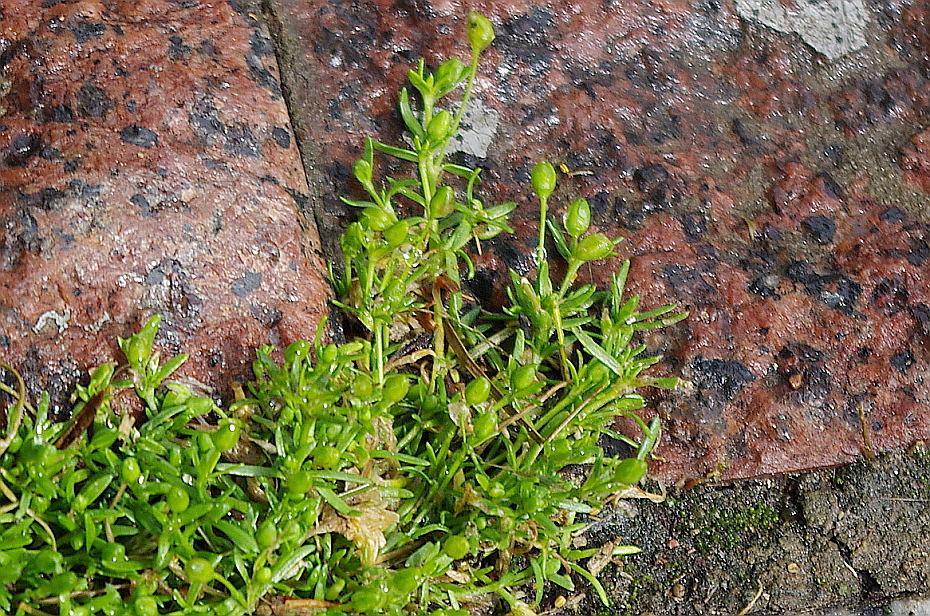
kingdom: Plantae
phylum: Tracheophyta
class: Magnoliopsida
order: Caryophyllales
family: Caryophyllaceae
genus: Sagina
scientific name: Sagina procumbens
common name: Procumbent pearlwort
